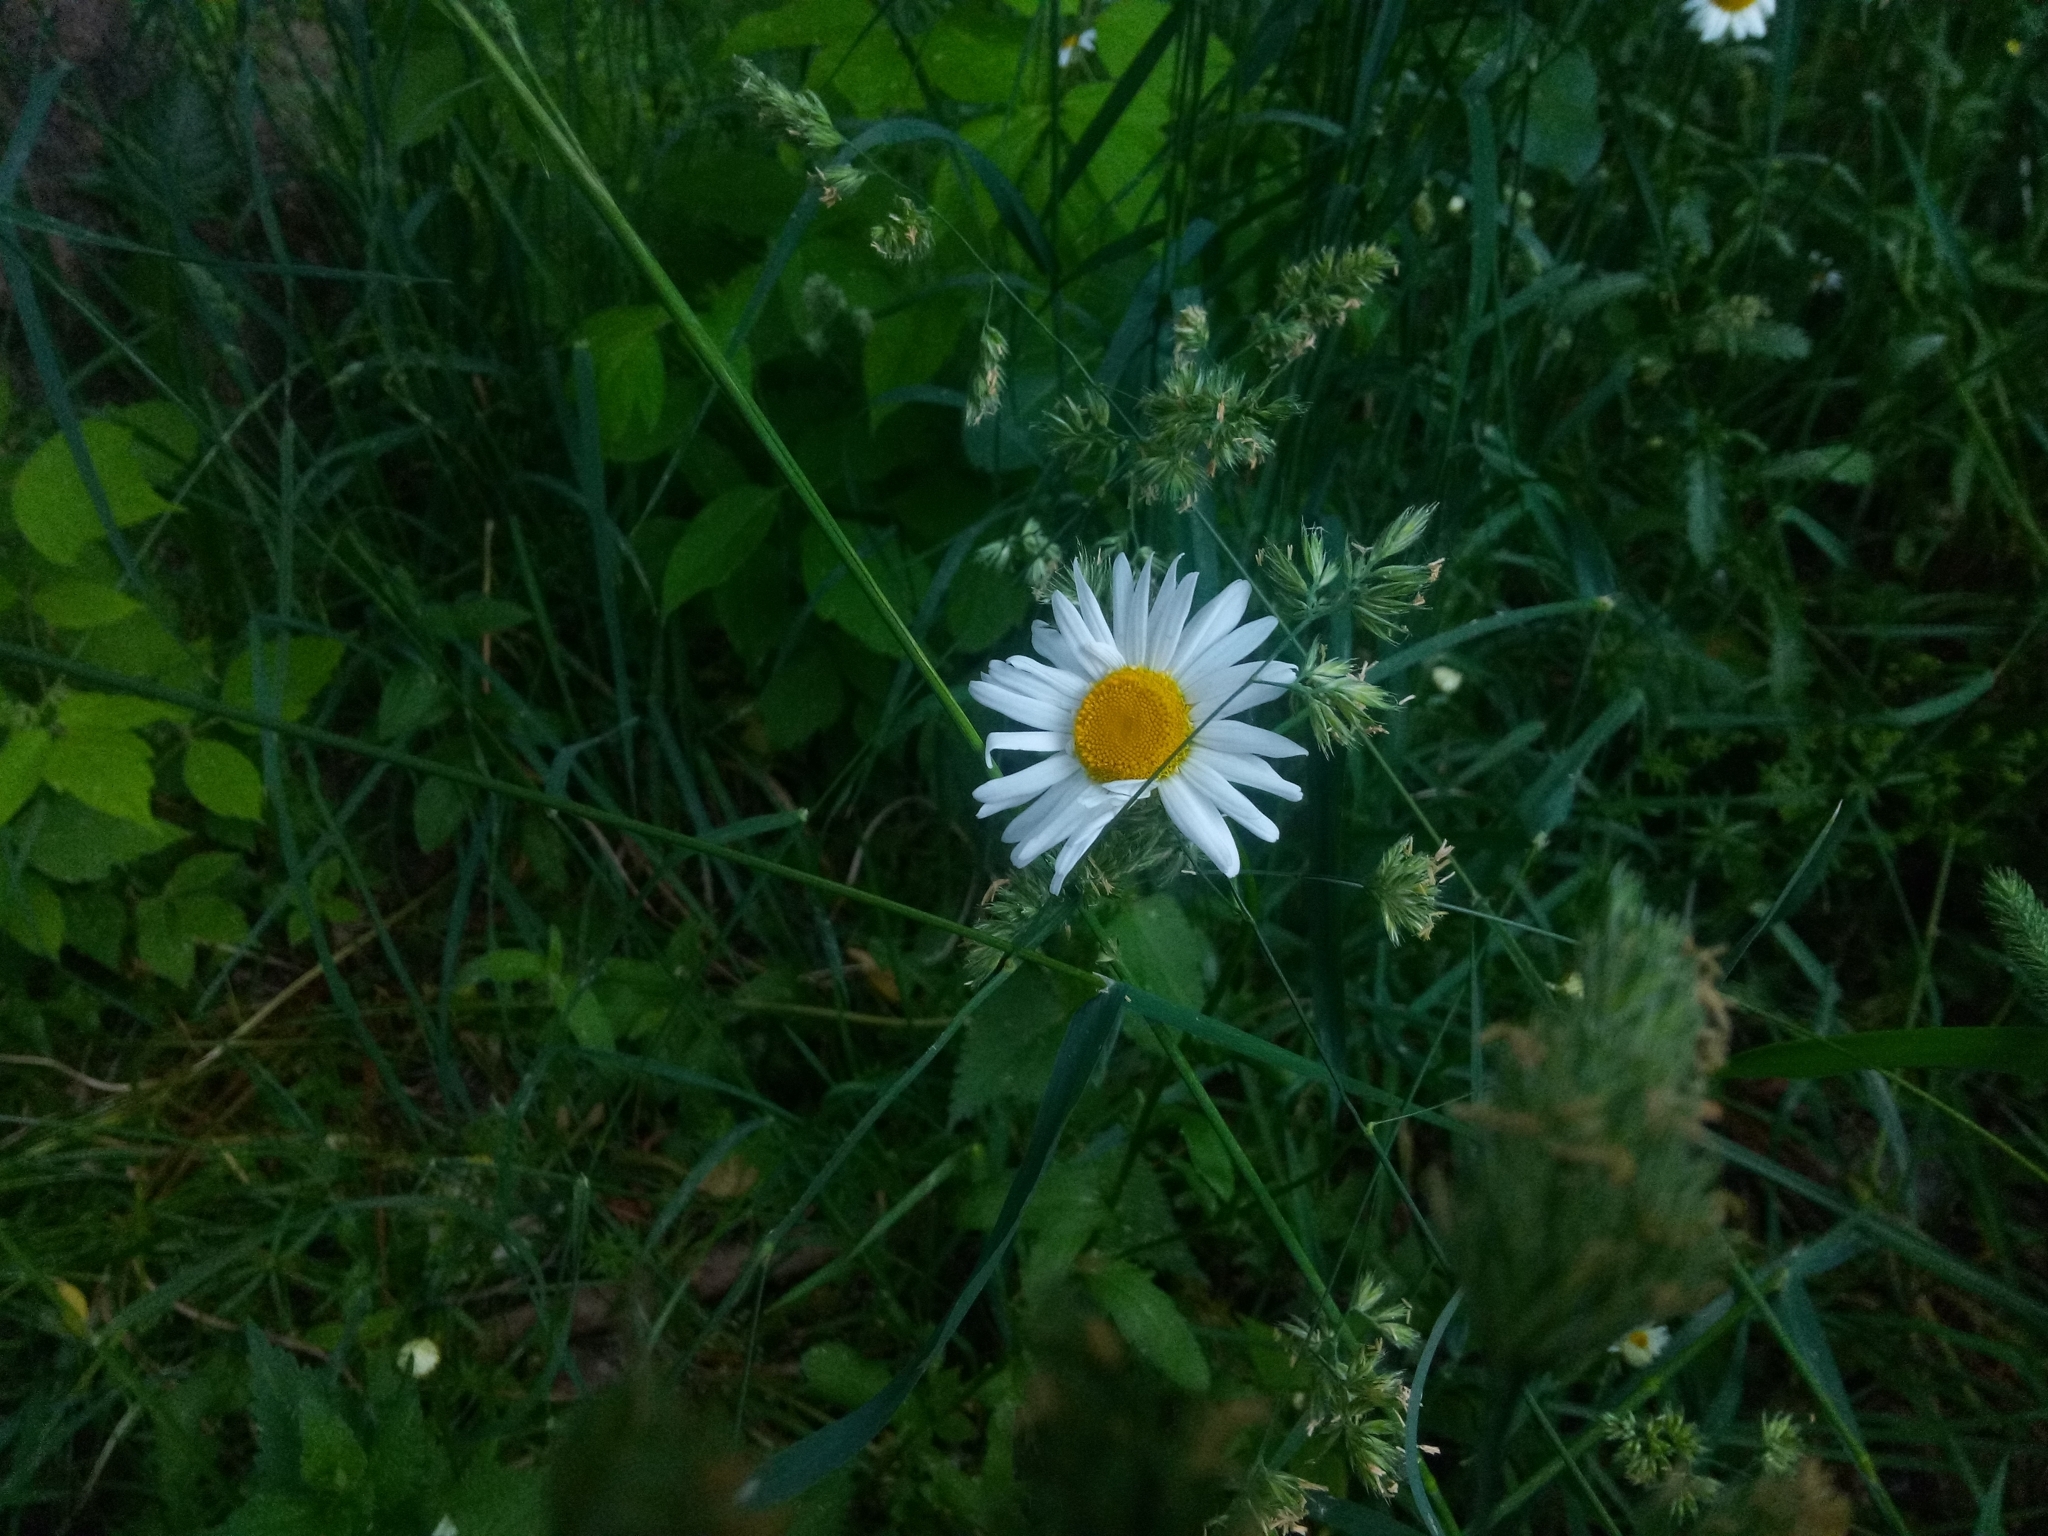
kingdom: Plantae
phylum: Tracheophyta
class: Magnoliopsida
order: Asterales
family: Asteraceae
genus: Leucanthemum
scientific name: Leucanthemum vulgare
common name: Oxeye daisy
